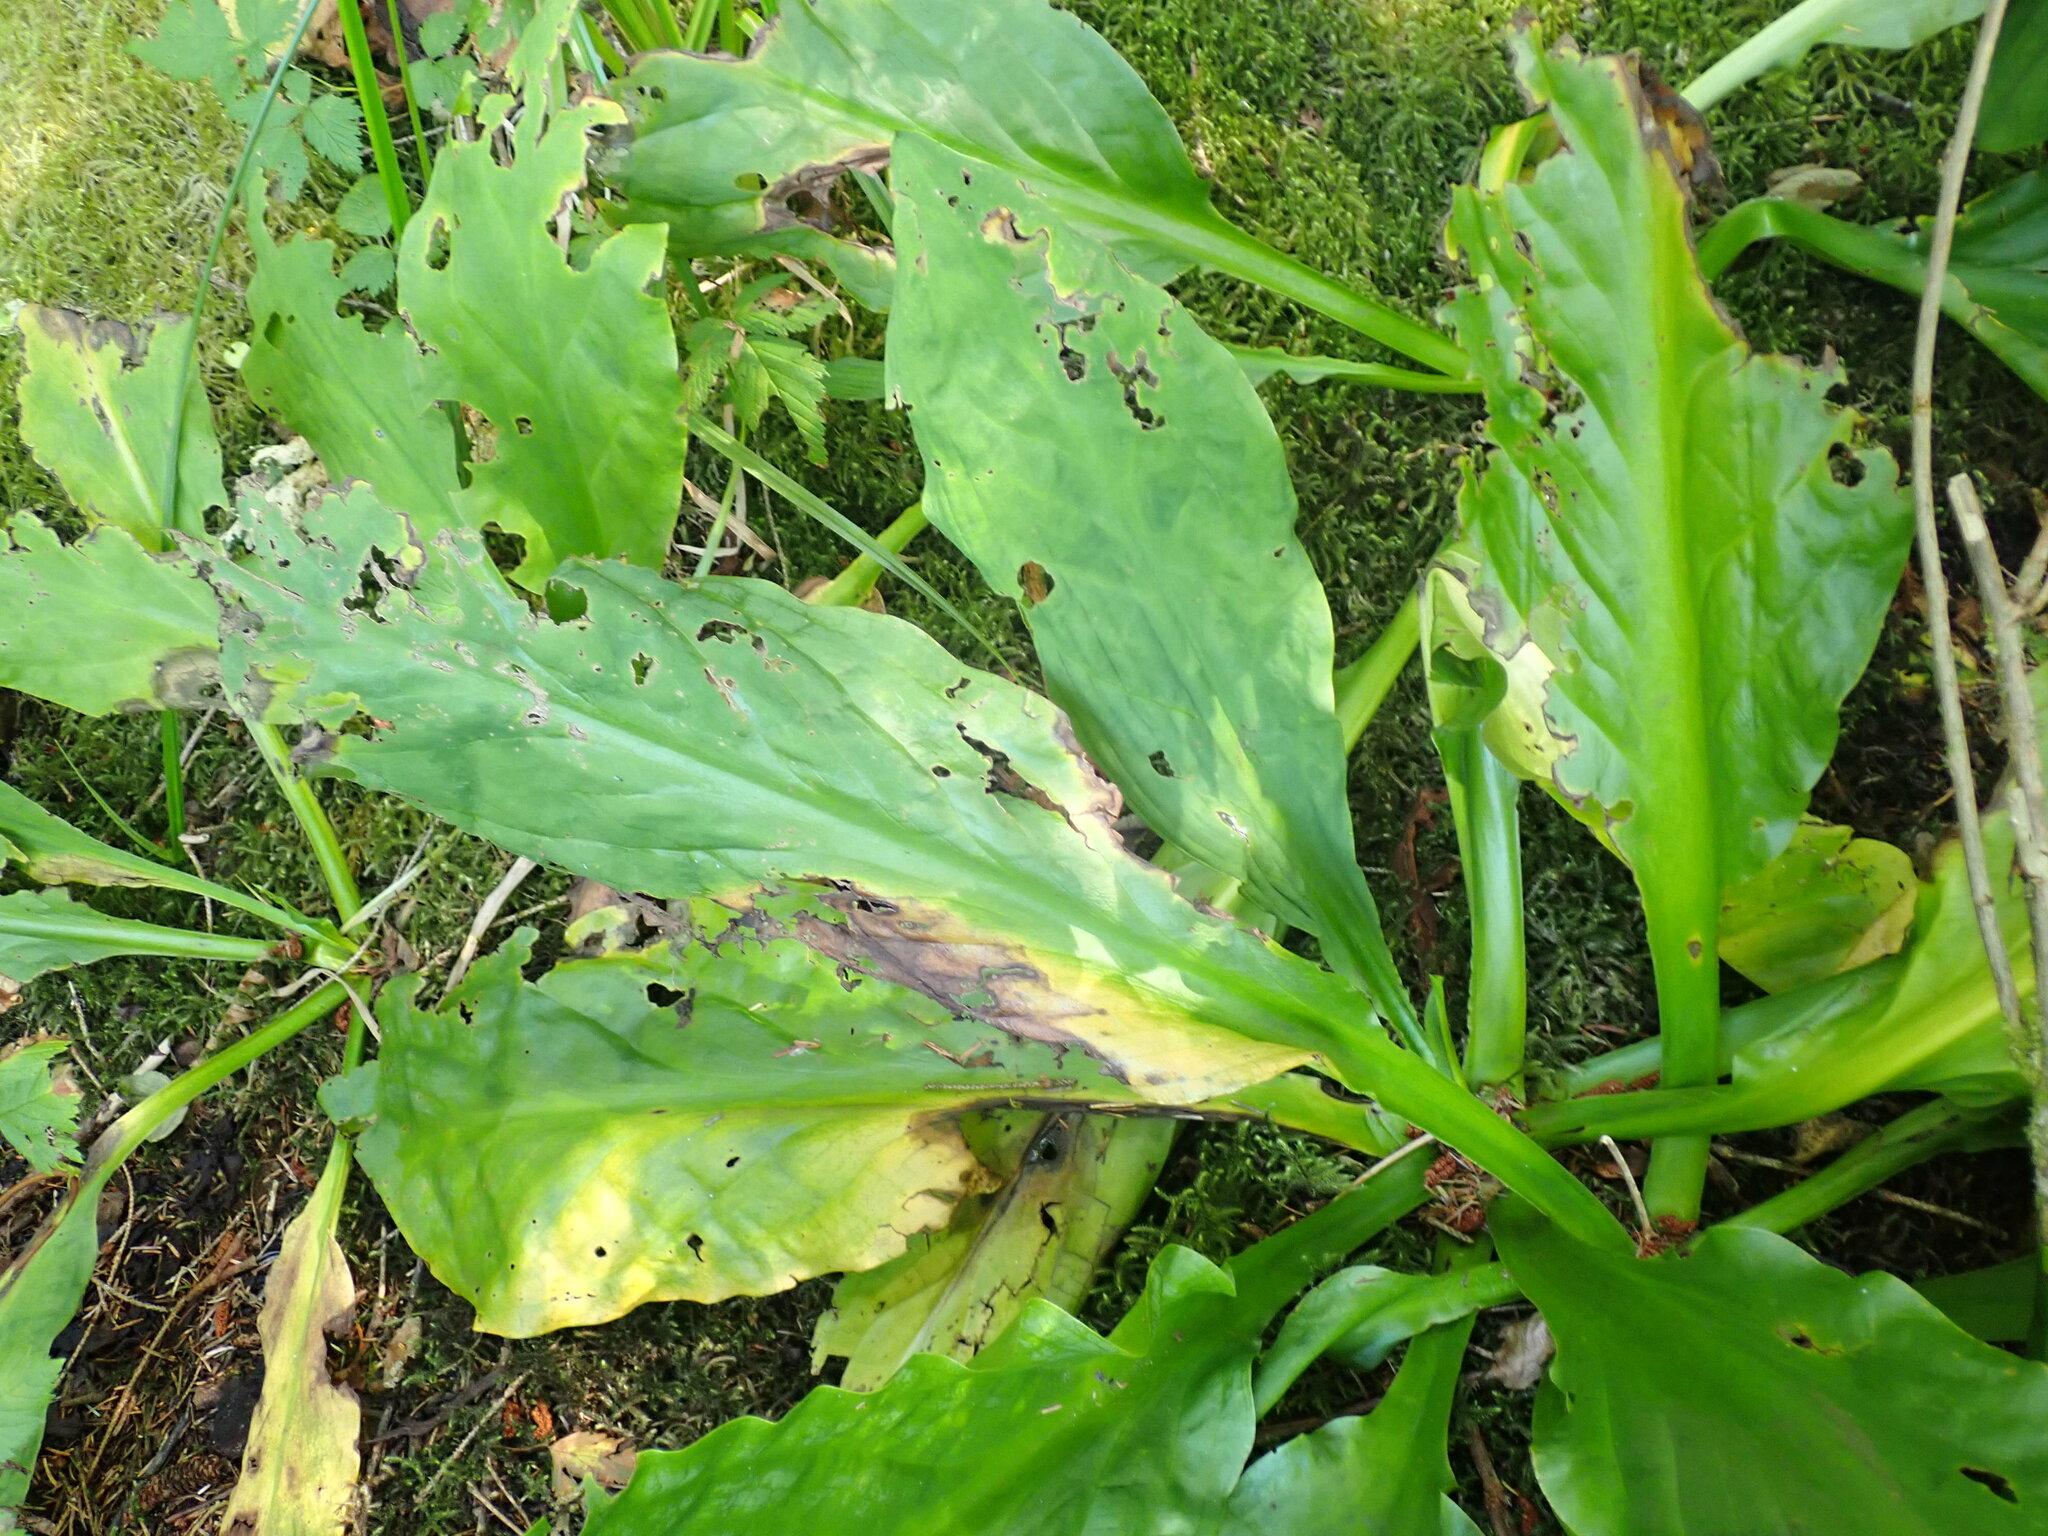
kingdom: Plantae
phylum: Tracheophyta
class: Liliopsida
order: Alismatales
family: Araceae
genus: Lysichiton
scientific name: Lysichiton americanus
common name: American skunk cabbage
